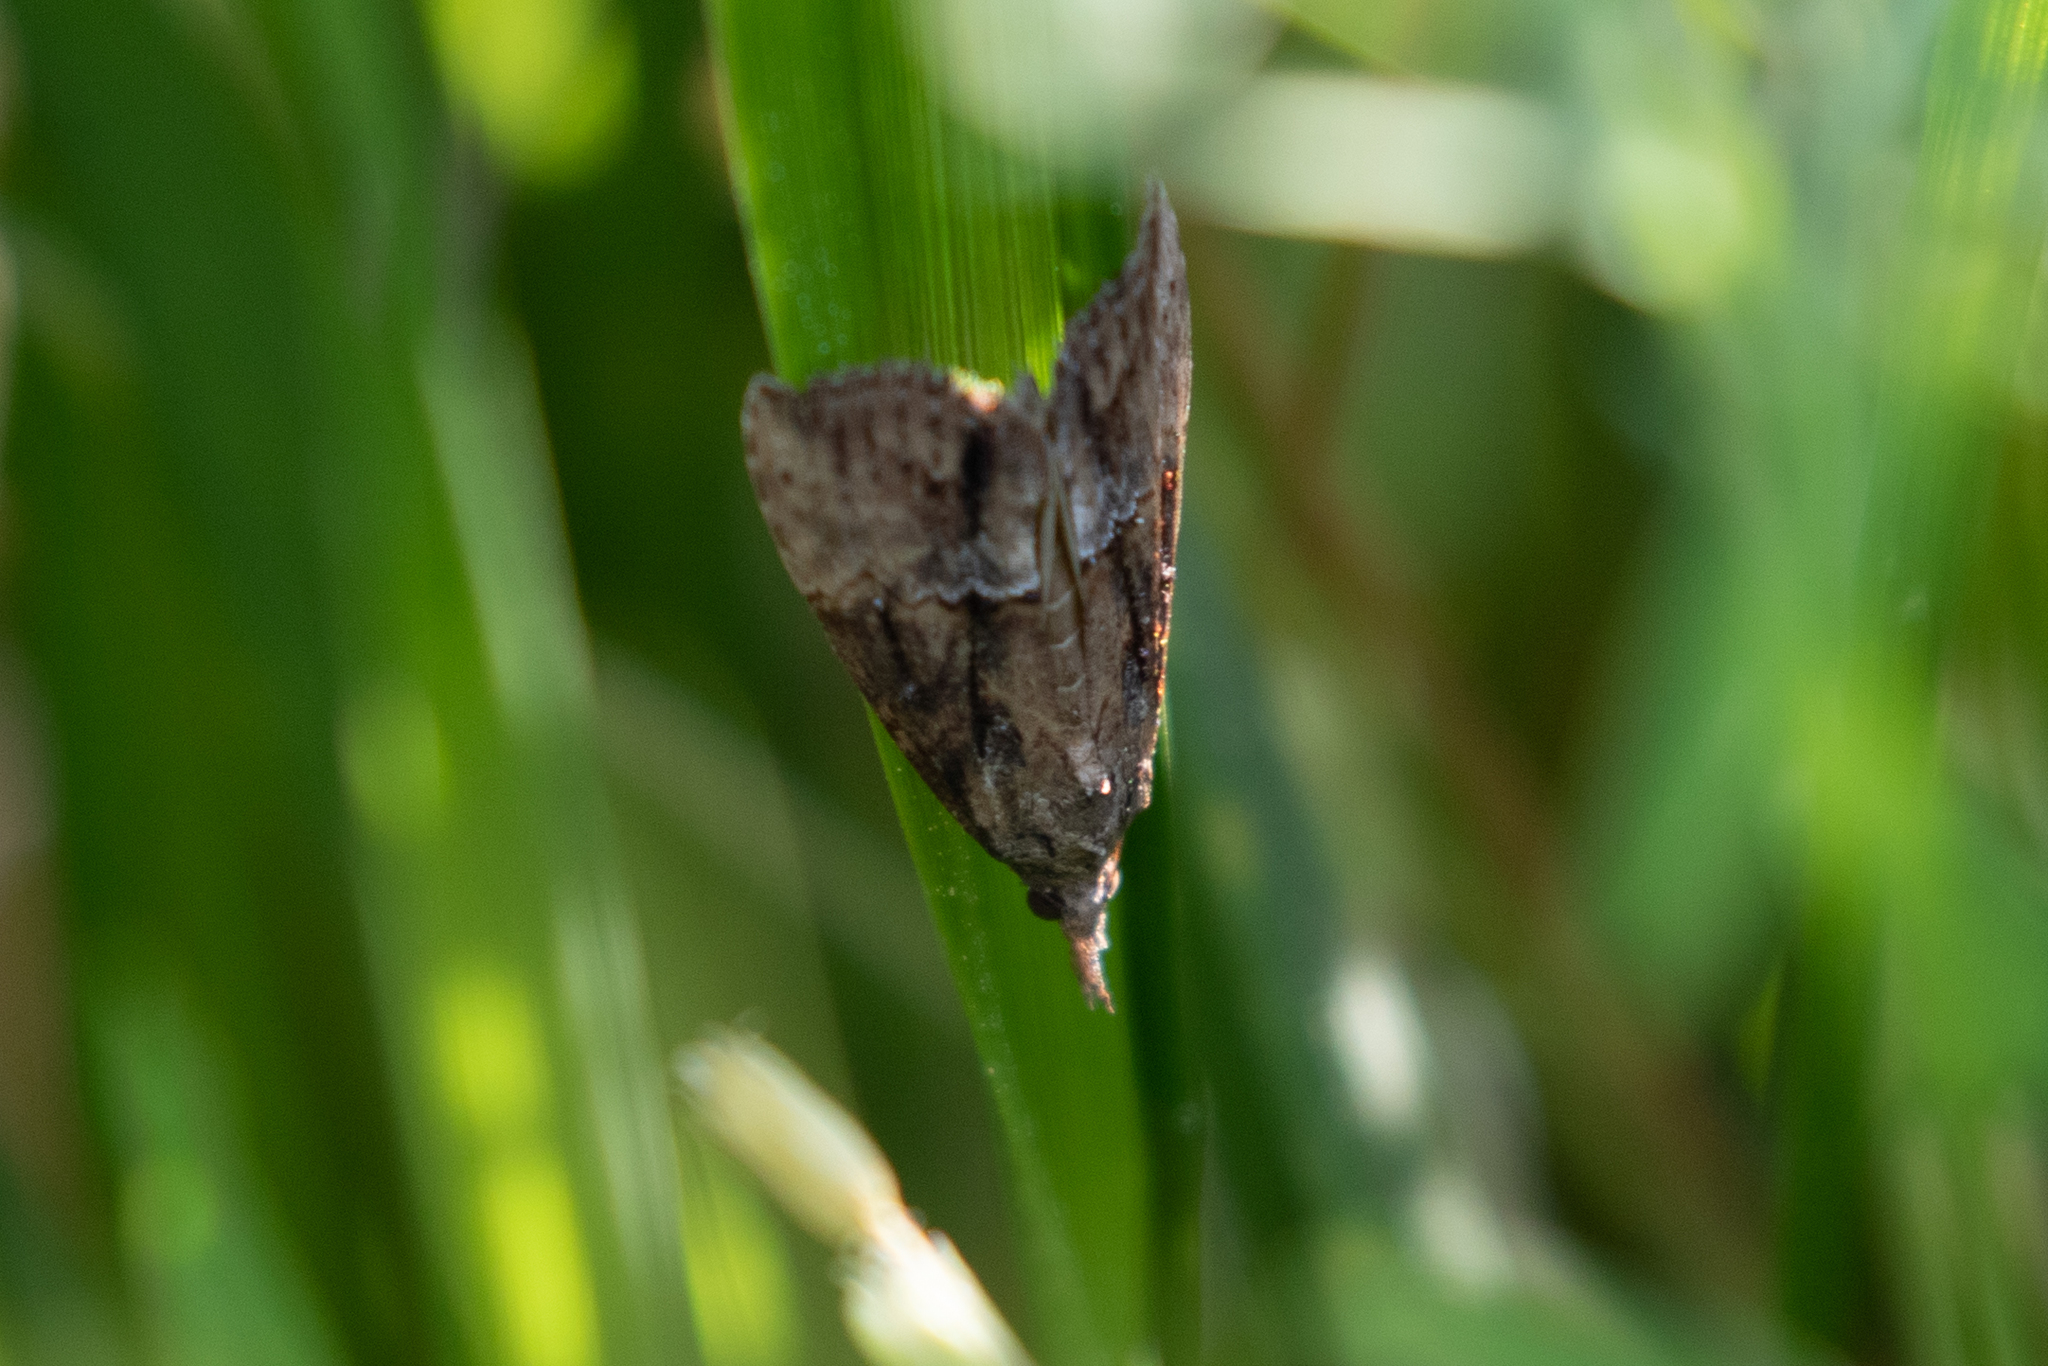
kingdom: Animalia
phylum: Arthropoda
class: Insecta
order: Lepidoptera
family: Erebidae
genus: Hypena
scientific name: Hypena scabra
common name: Green cloverworm
